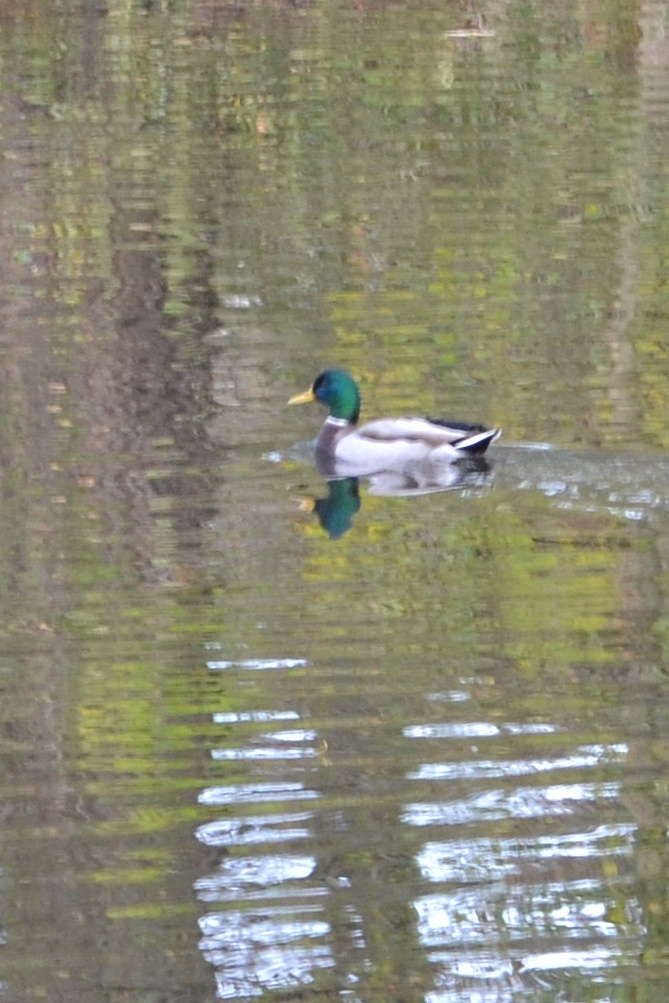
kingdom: Animalia
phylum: Chordata
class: Aves
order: Anseriformes
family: Anatidae
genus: Anas
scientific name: Anas platyrhynchos
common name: Mallard
